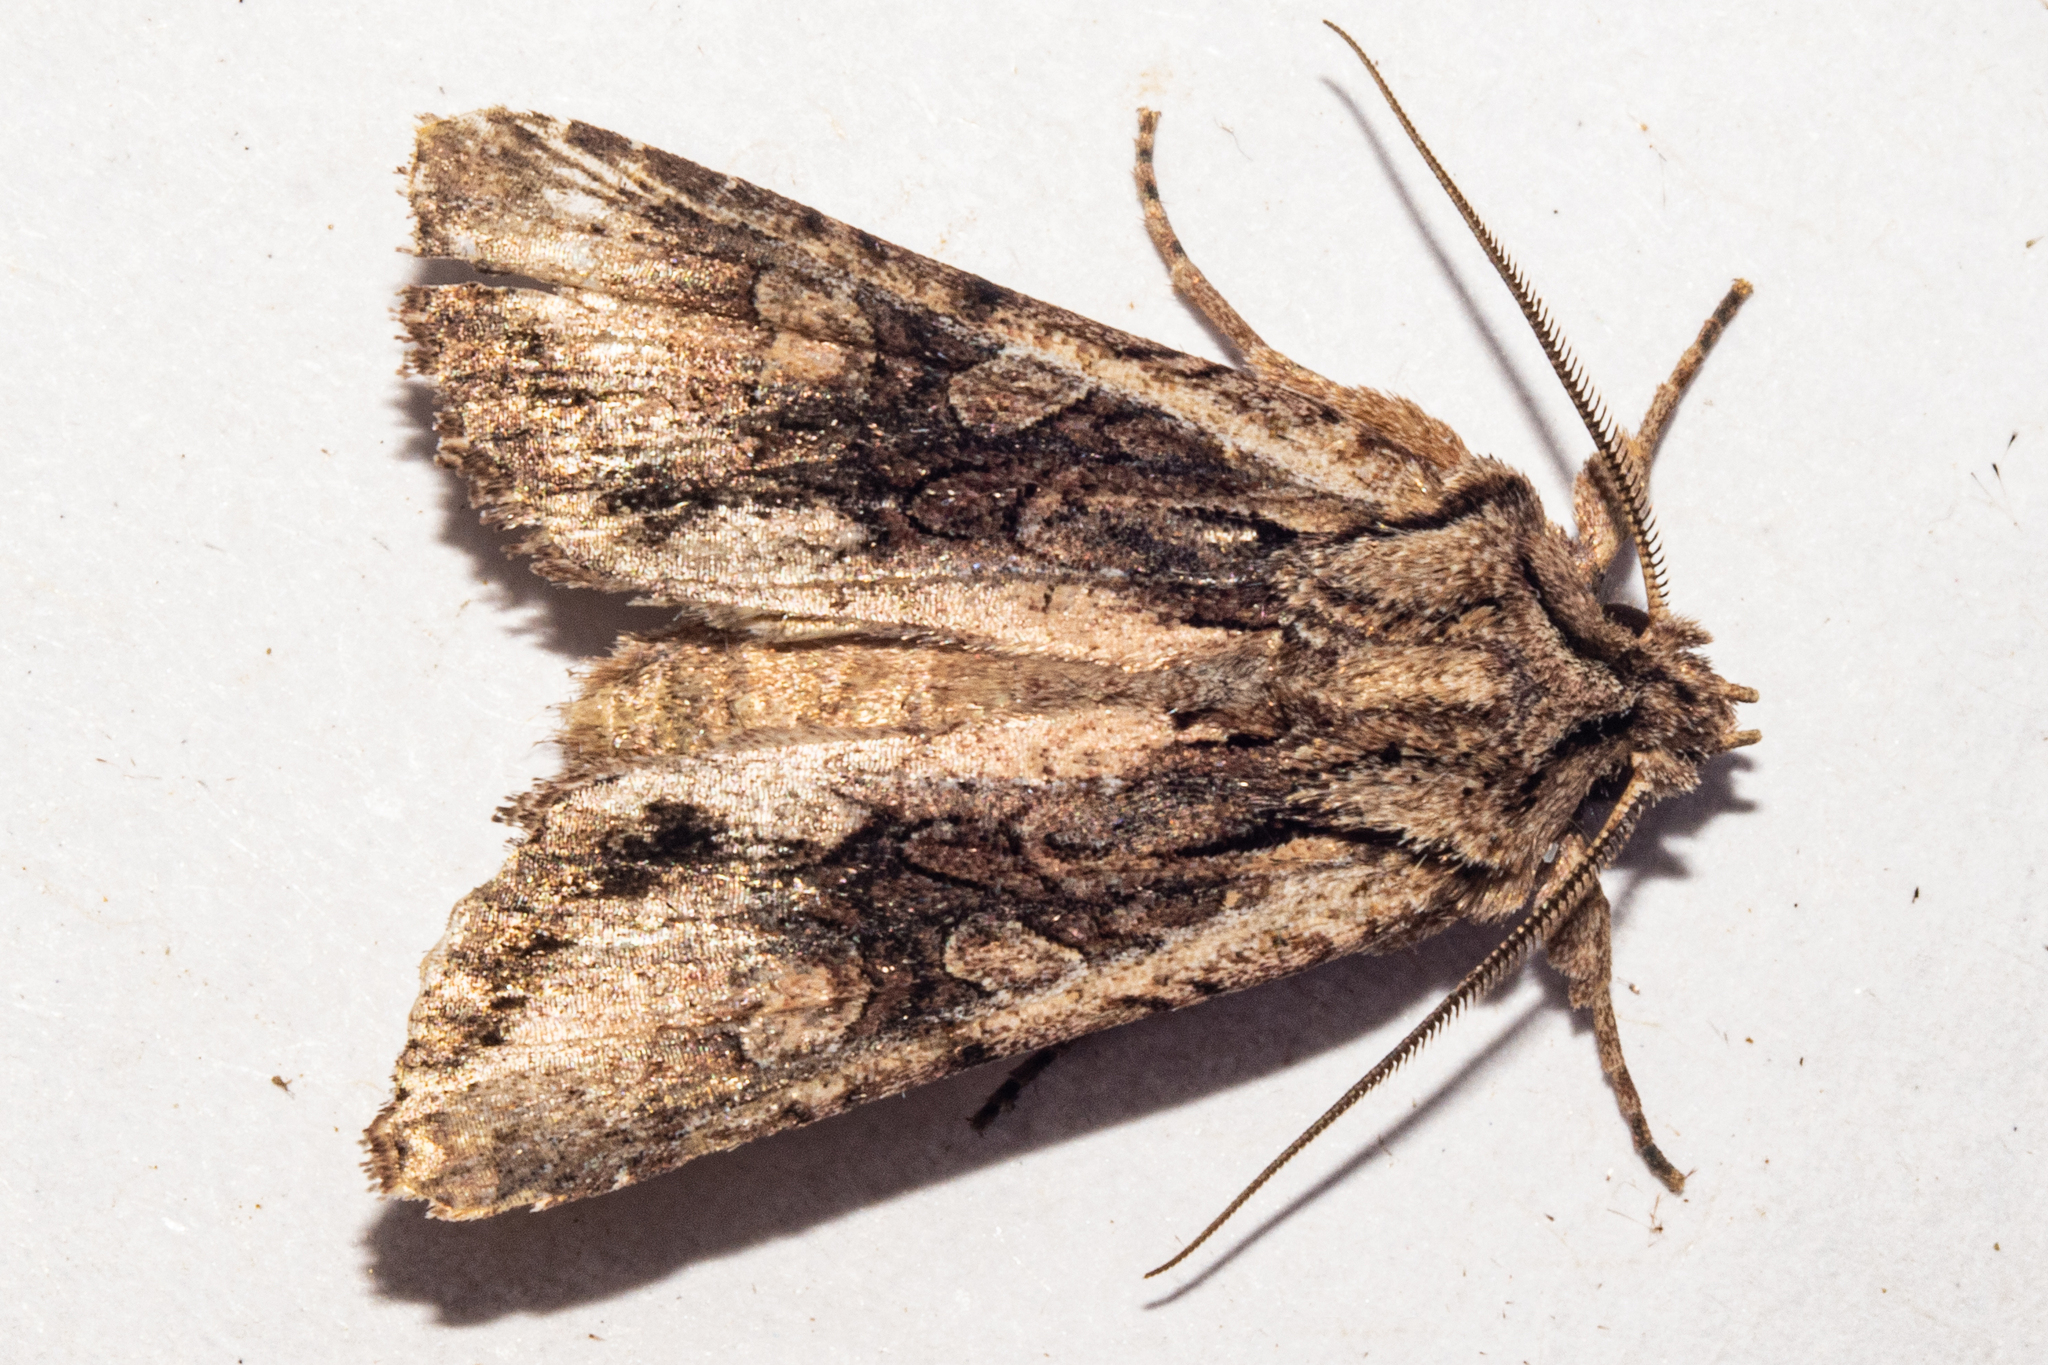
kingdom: Animalia
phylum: Arthropoda
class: Insecta
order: Lepidoptera
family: Noctuidae
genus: Ichneutica
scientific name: Ichneutica mutans
